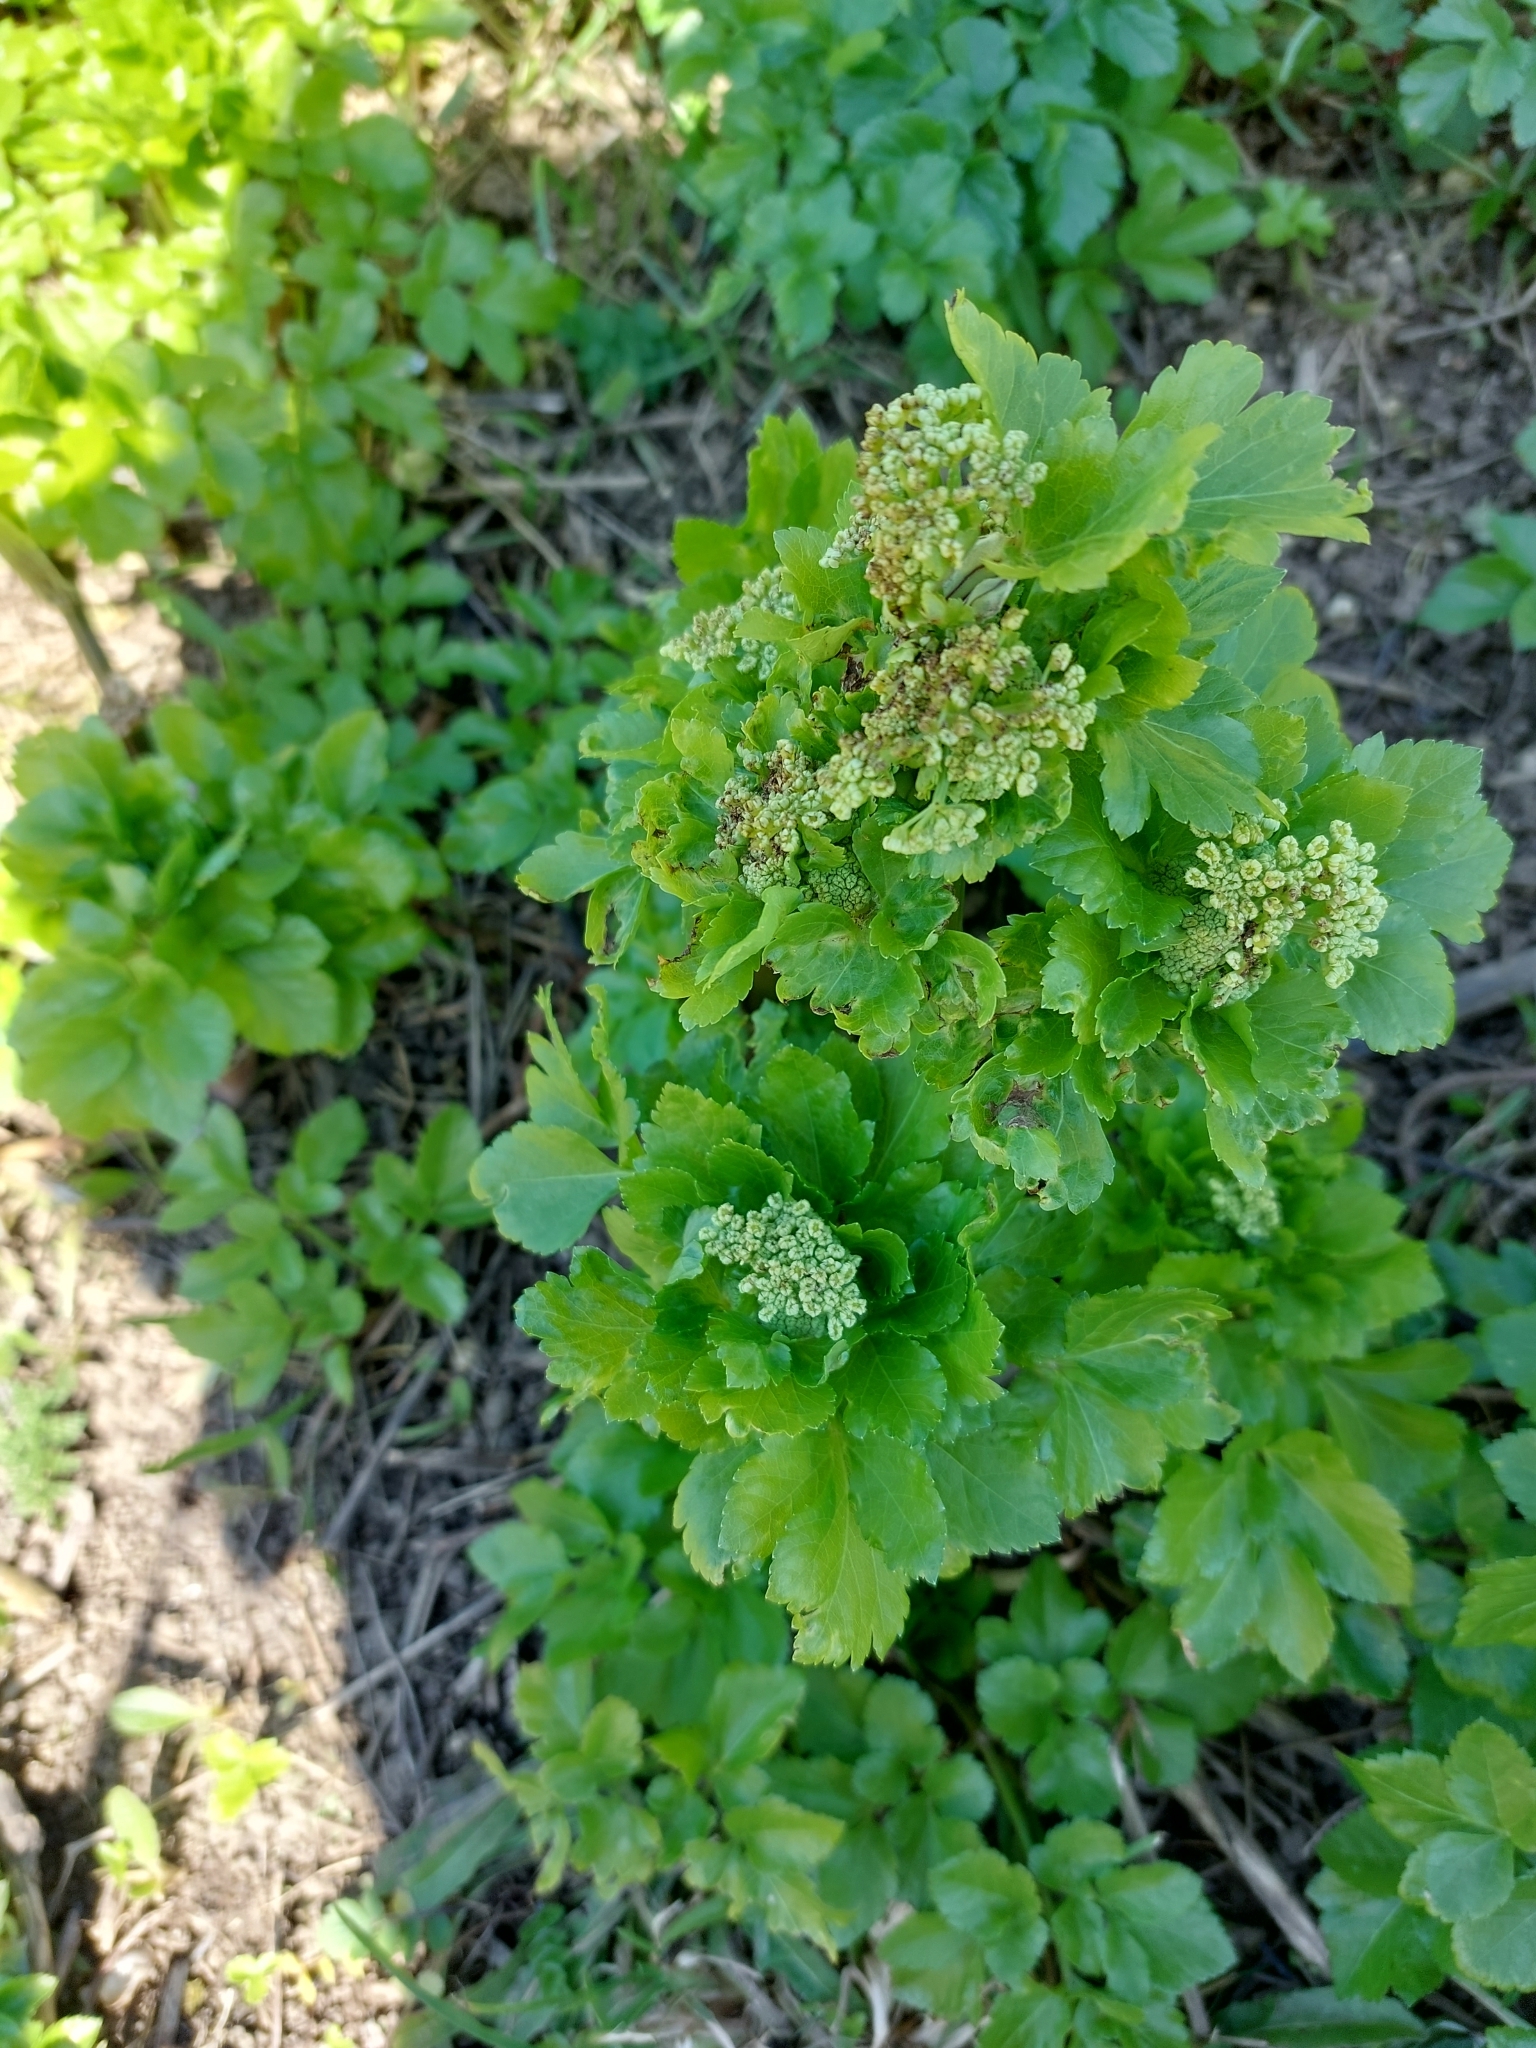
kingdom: Plantae
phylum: Tracheophyta
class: Magnoliopsida
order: Apiales
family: Apiaceae
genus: Smyrnium
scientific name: Smyrnium olusatrum
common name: Alexanders
